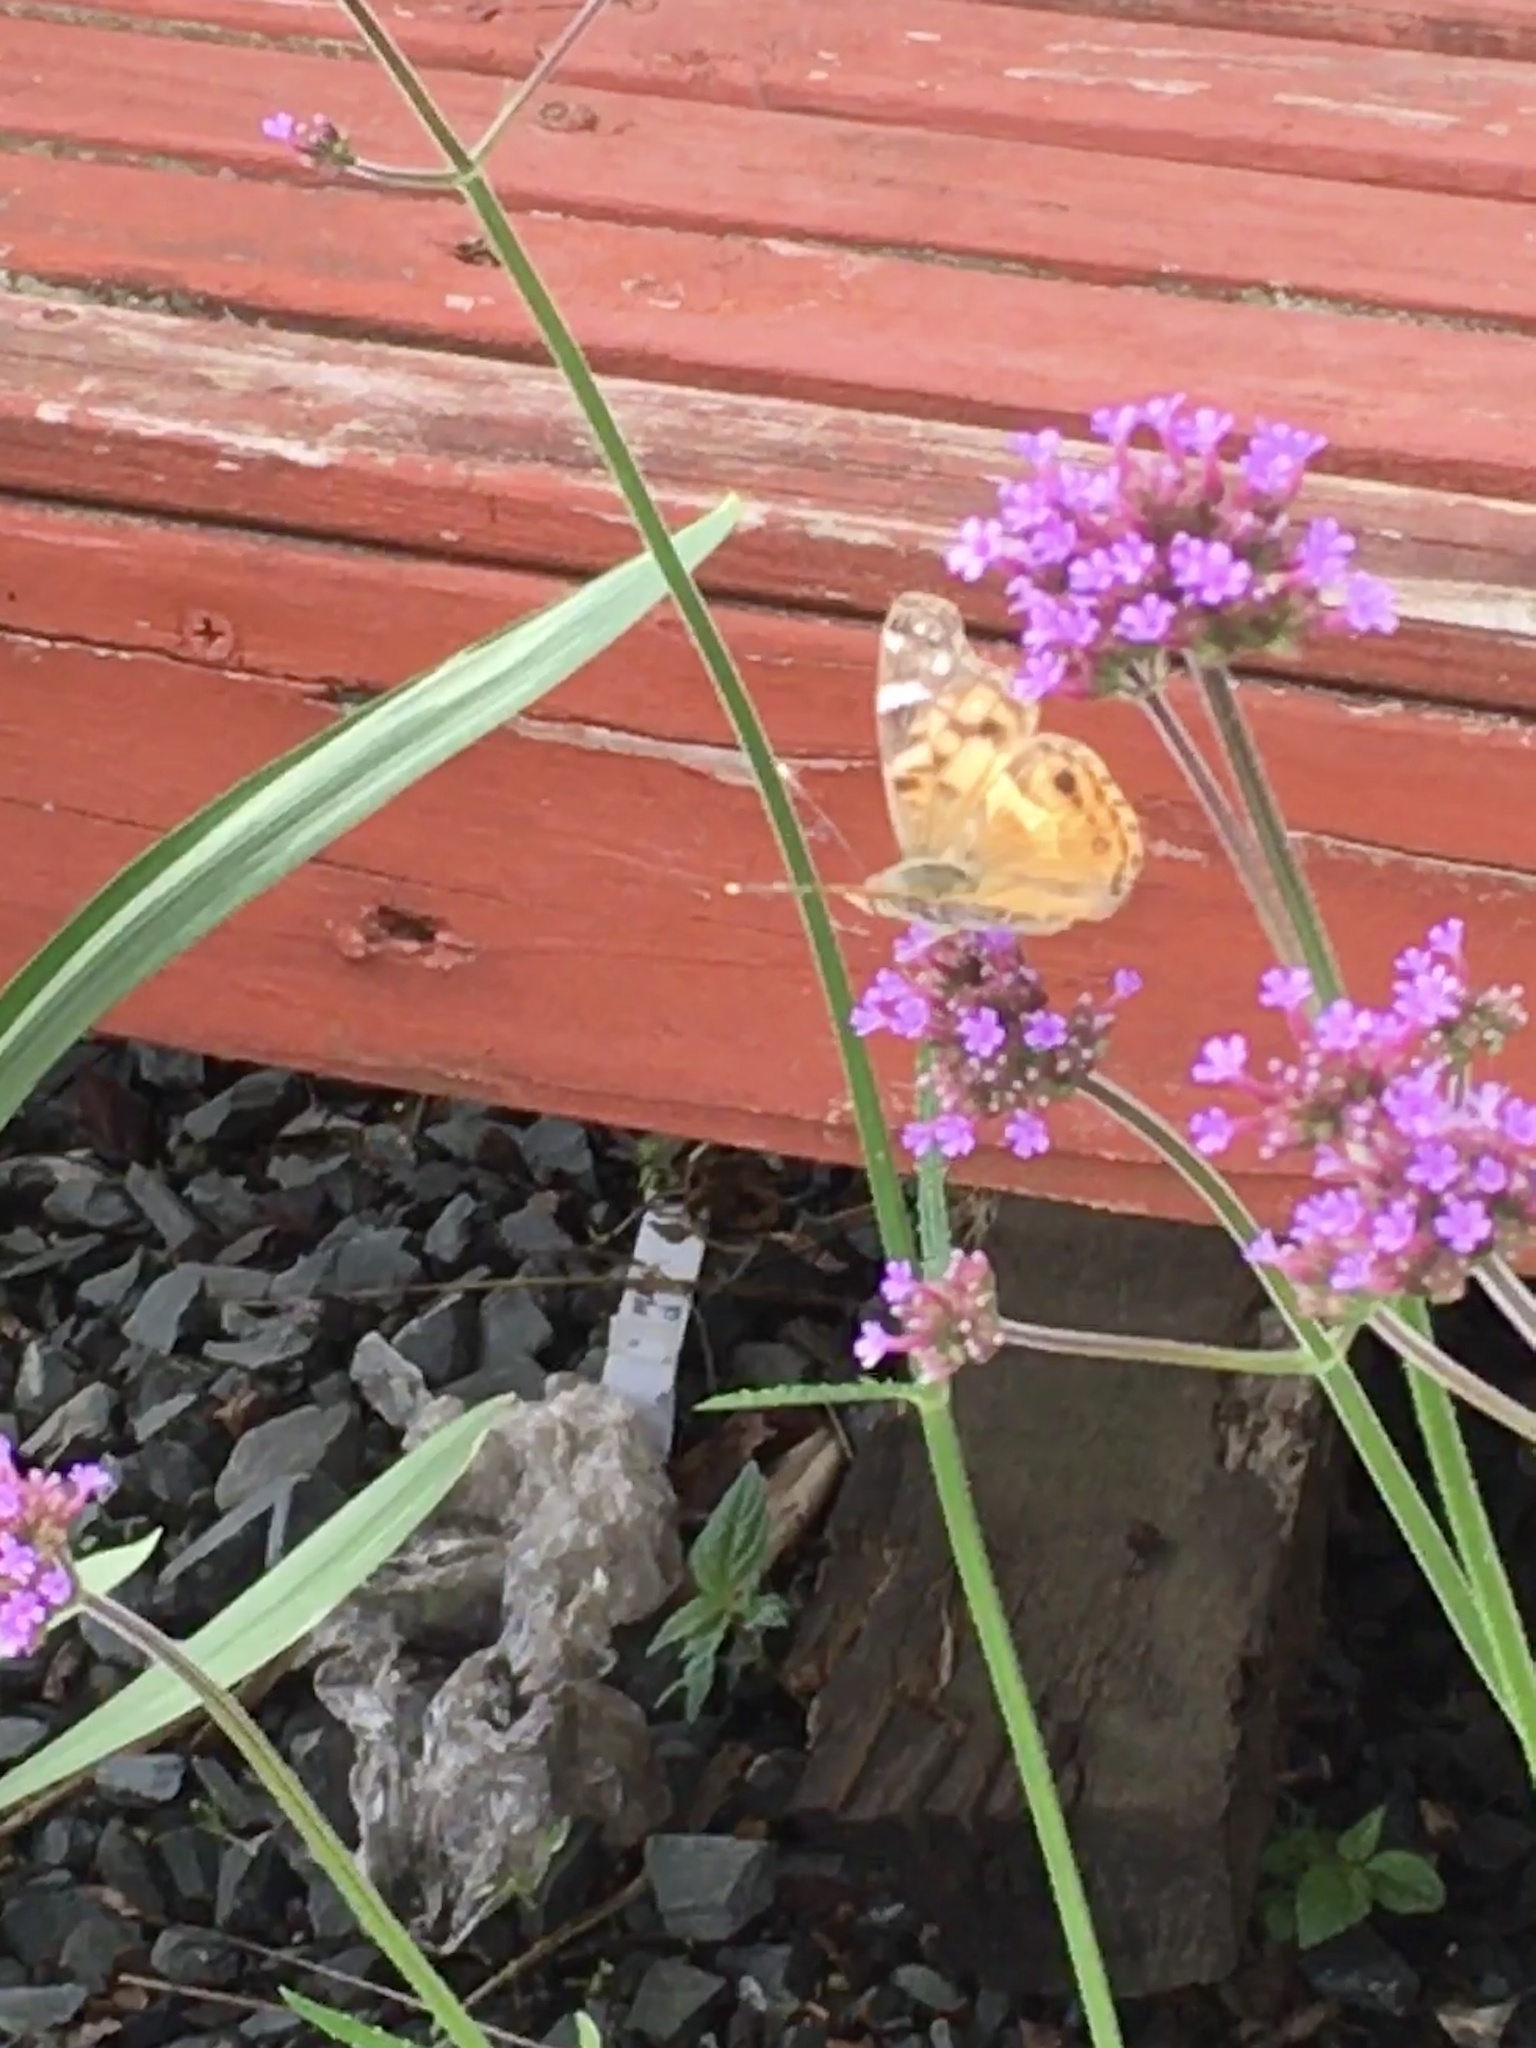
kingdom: Animalia
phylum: Arthropoda
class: Insecta
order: Lepidoptera
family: Nymphalidae
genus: Vanessa
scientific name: Vanessa virginiensis
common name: American lady
